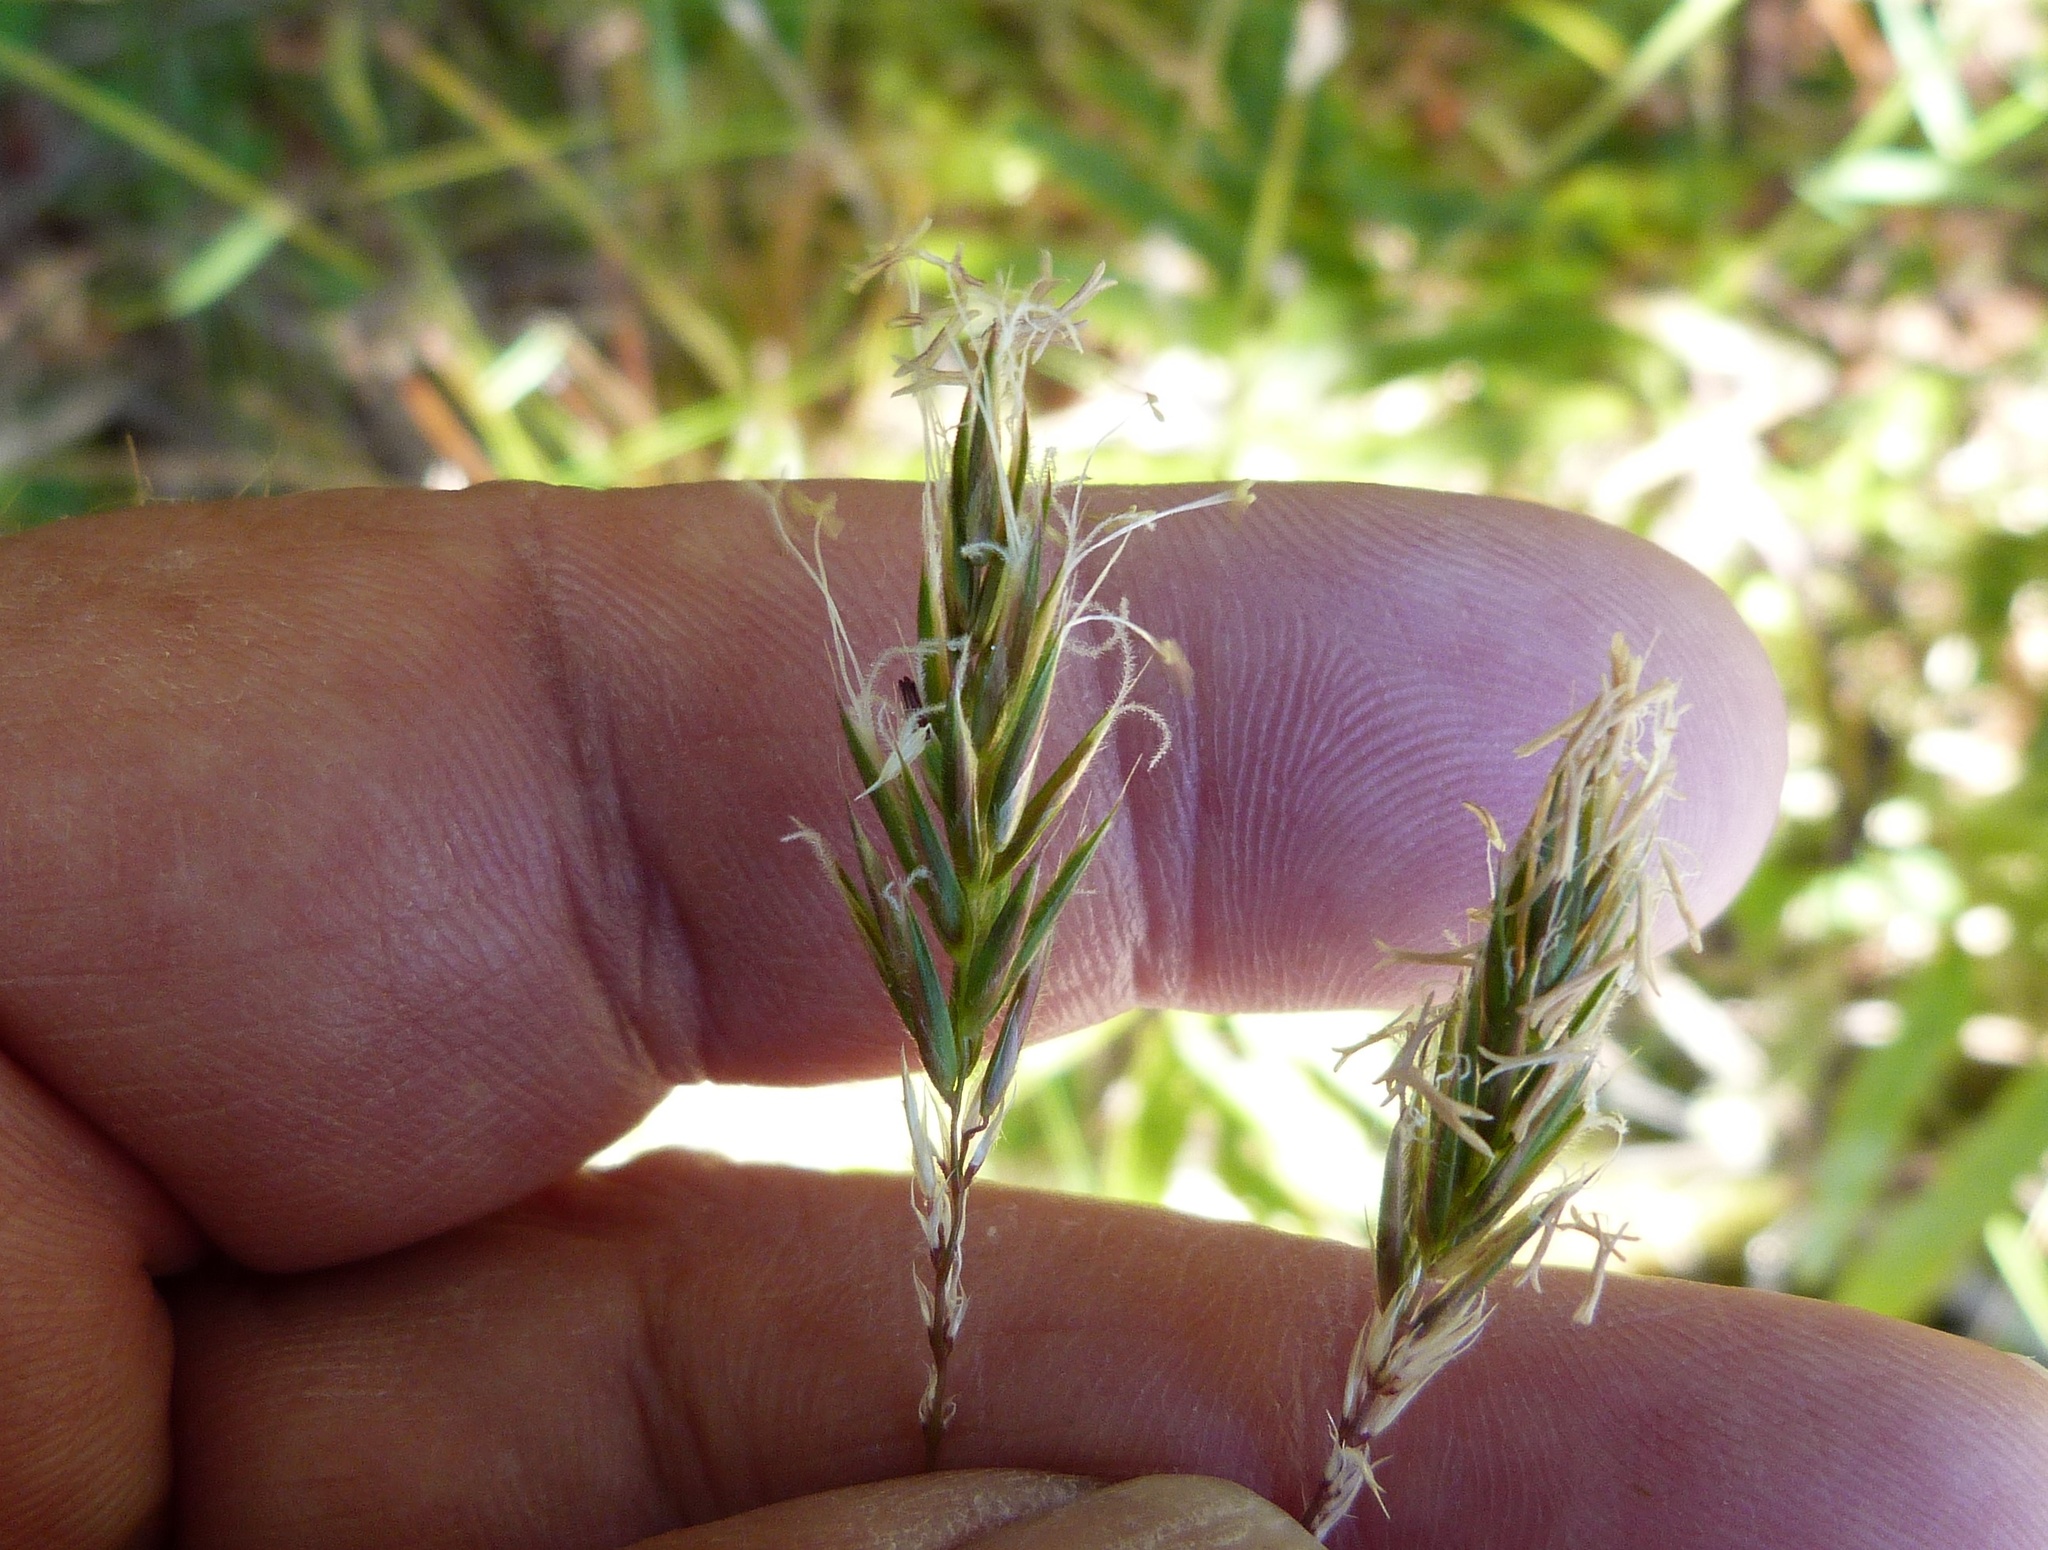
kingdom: Plantae
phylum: Tracheophyta
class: Liliopsida
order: Poales
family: Poaceae
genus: Anthoxanthum
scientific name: Anthoxanthum odoratum
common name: Sweet vernalgrass
